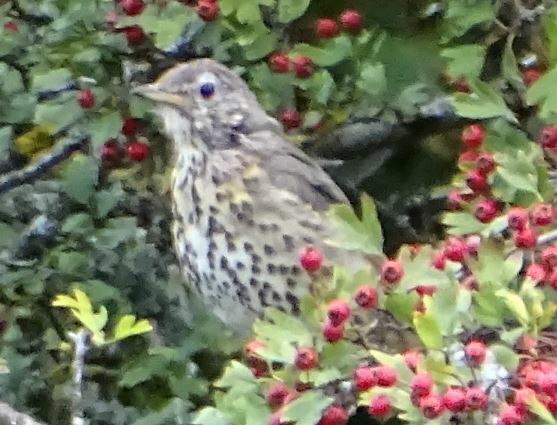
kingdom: Animalia
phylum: Chordata
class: Aves
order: Passeriformes
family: Turdidae
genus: Turdus
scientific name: Turdus philomelos
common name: Song thrush
